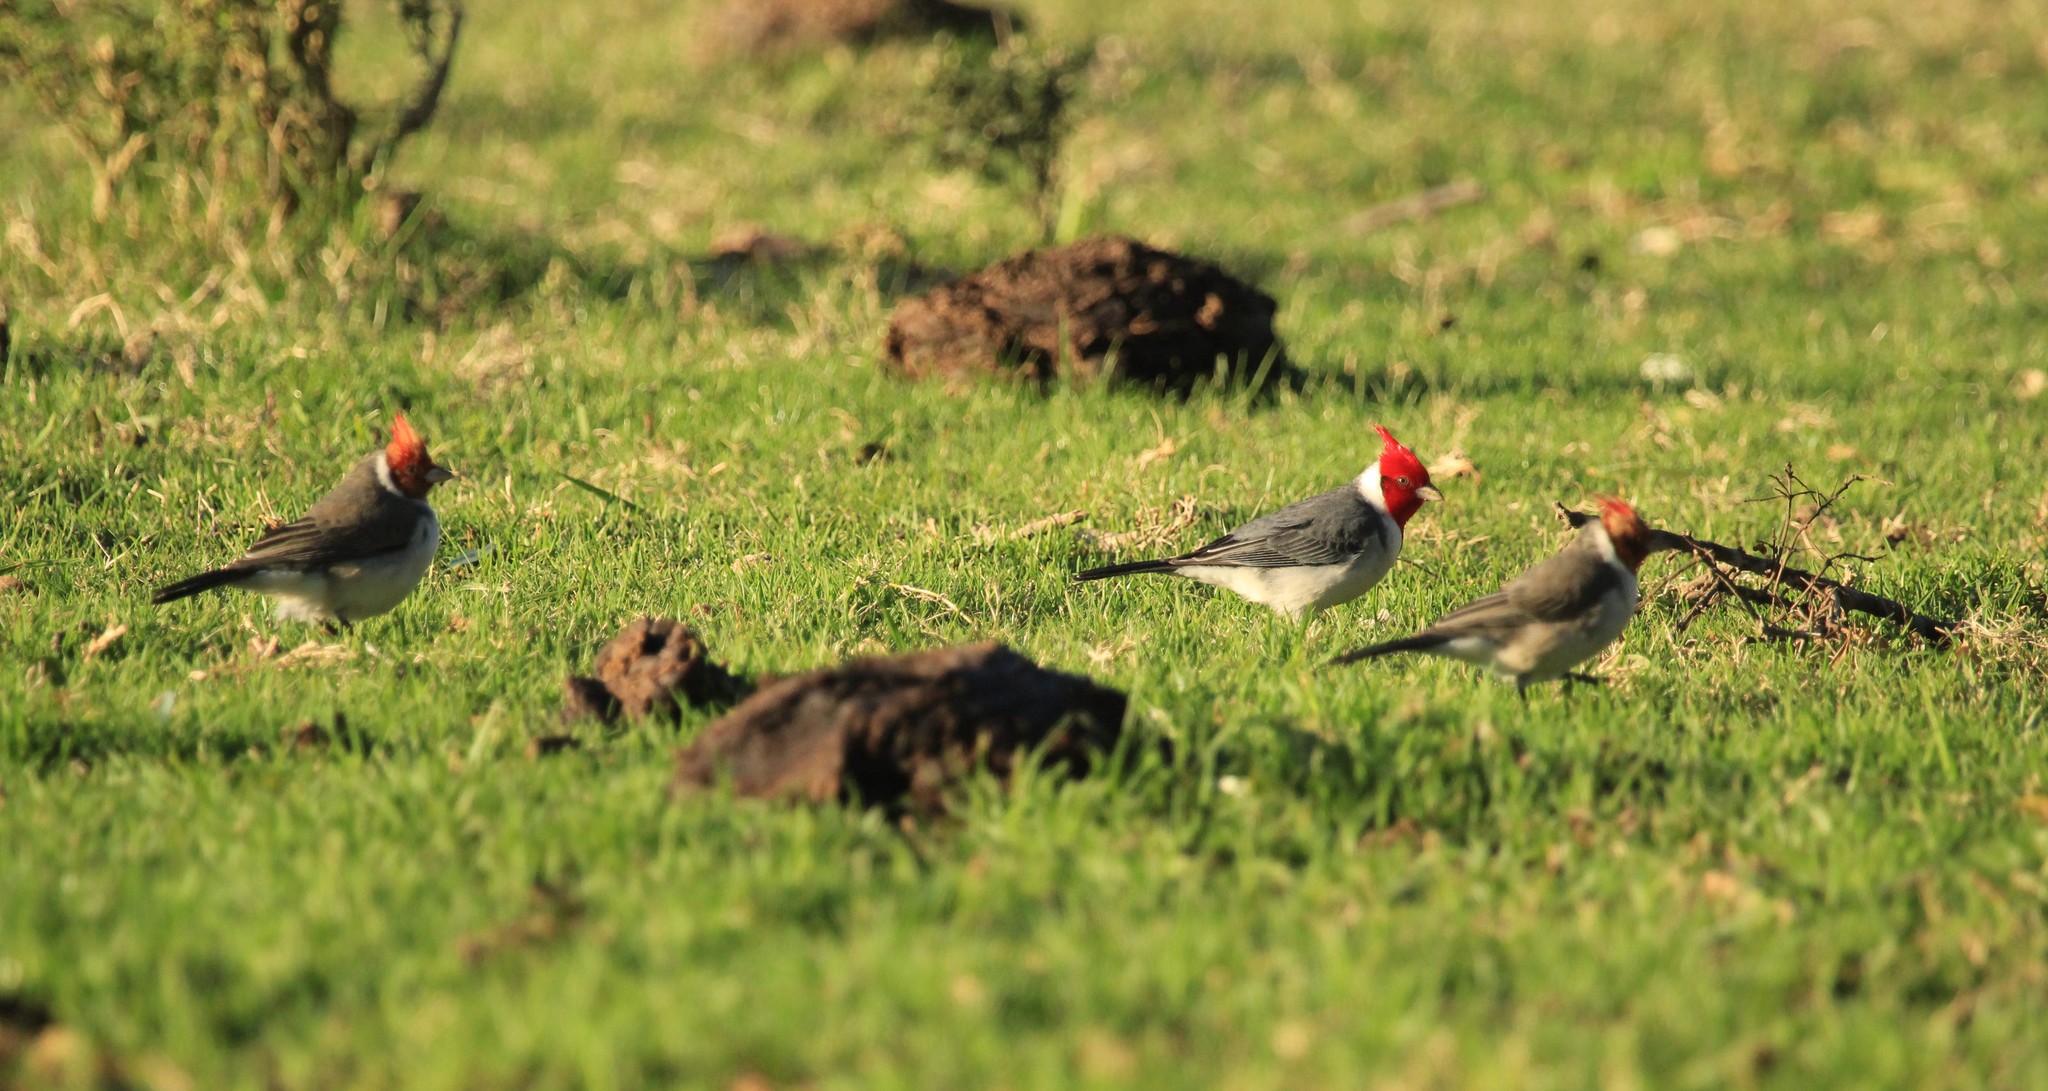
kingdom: Animalia
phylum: Chordata
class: Aves
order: Passeriformes
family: Thraupidae
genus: Paroaria
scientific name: Paroaria coronata
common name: Red-crested cardinal
